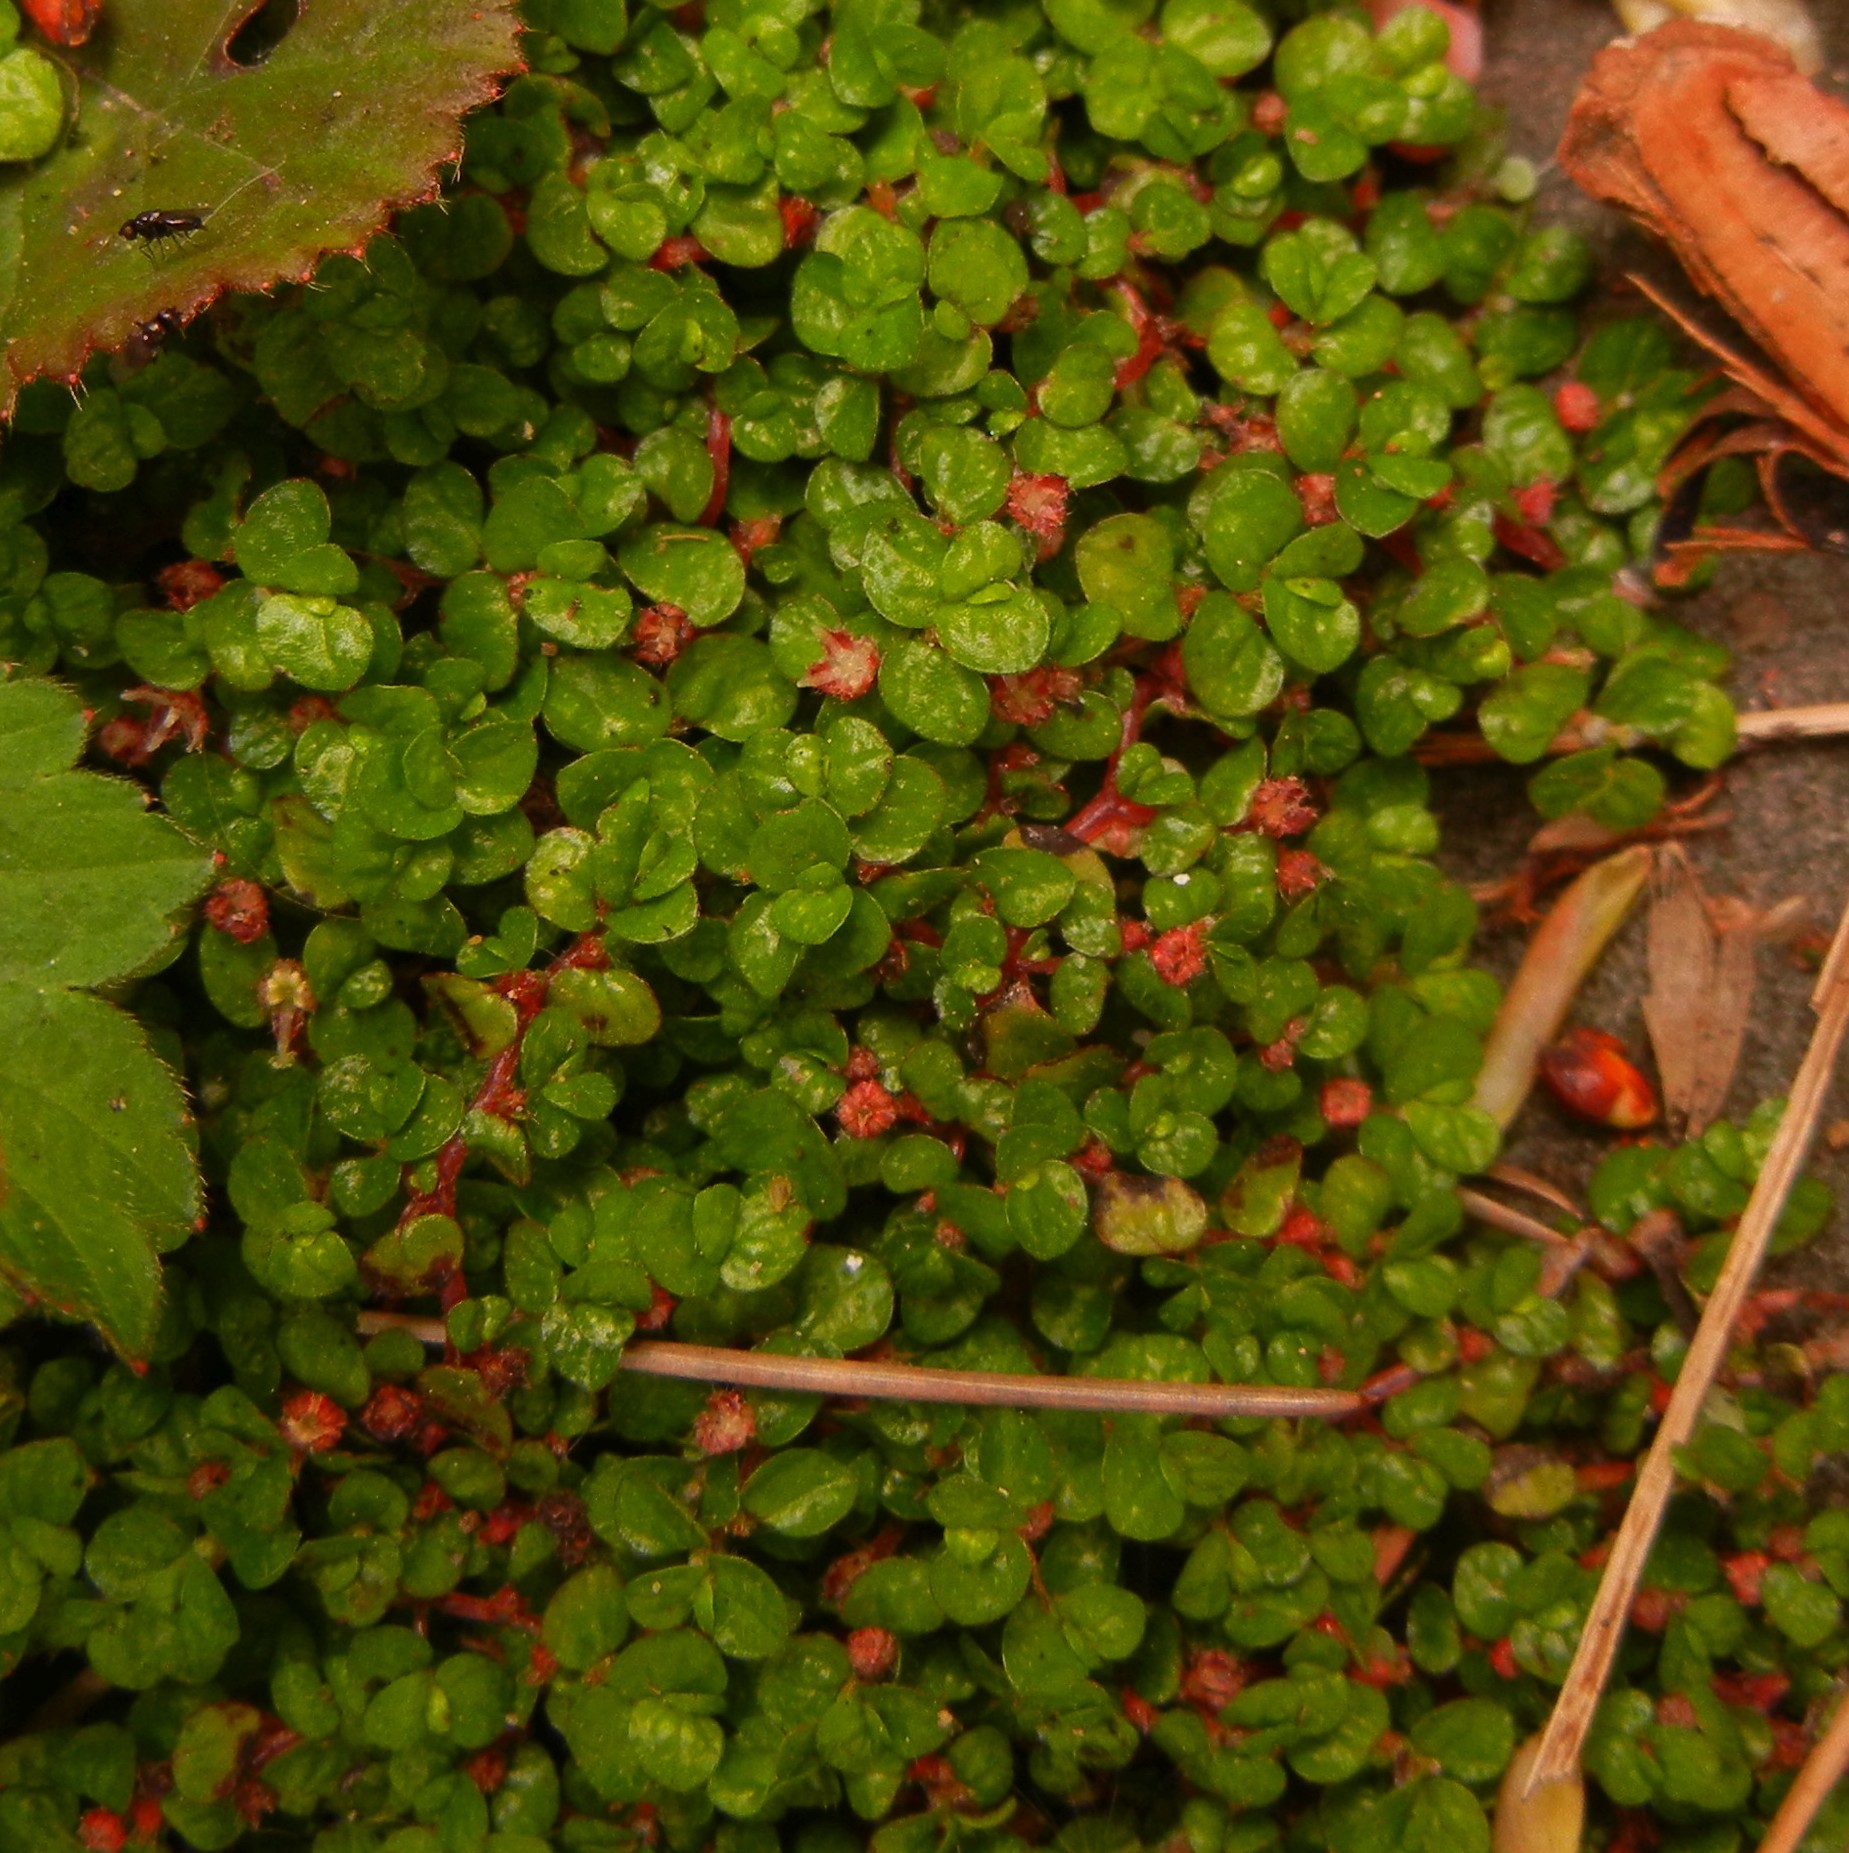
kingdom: Plantae
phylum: Tracheophyta
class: Magnoliopsida
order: Rosales
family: Urticaceae
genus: Soleirolia
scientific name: Soleirolia soleirolii
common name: Mind-your-own-business
